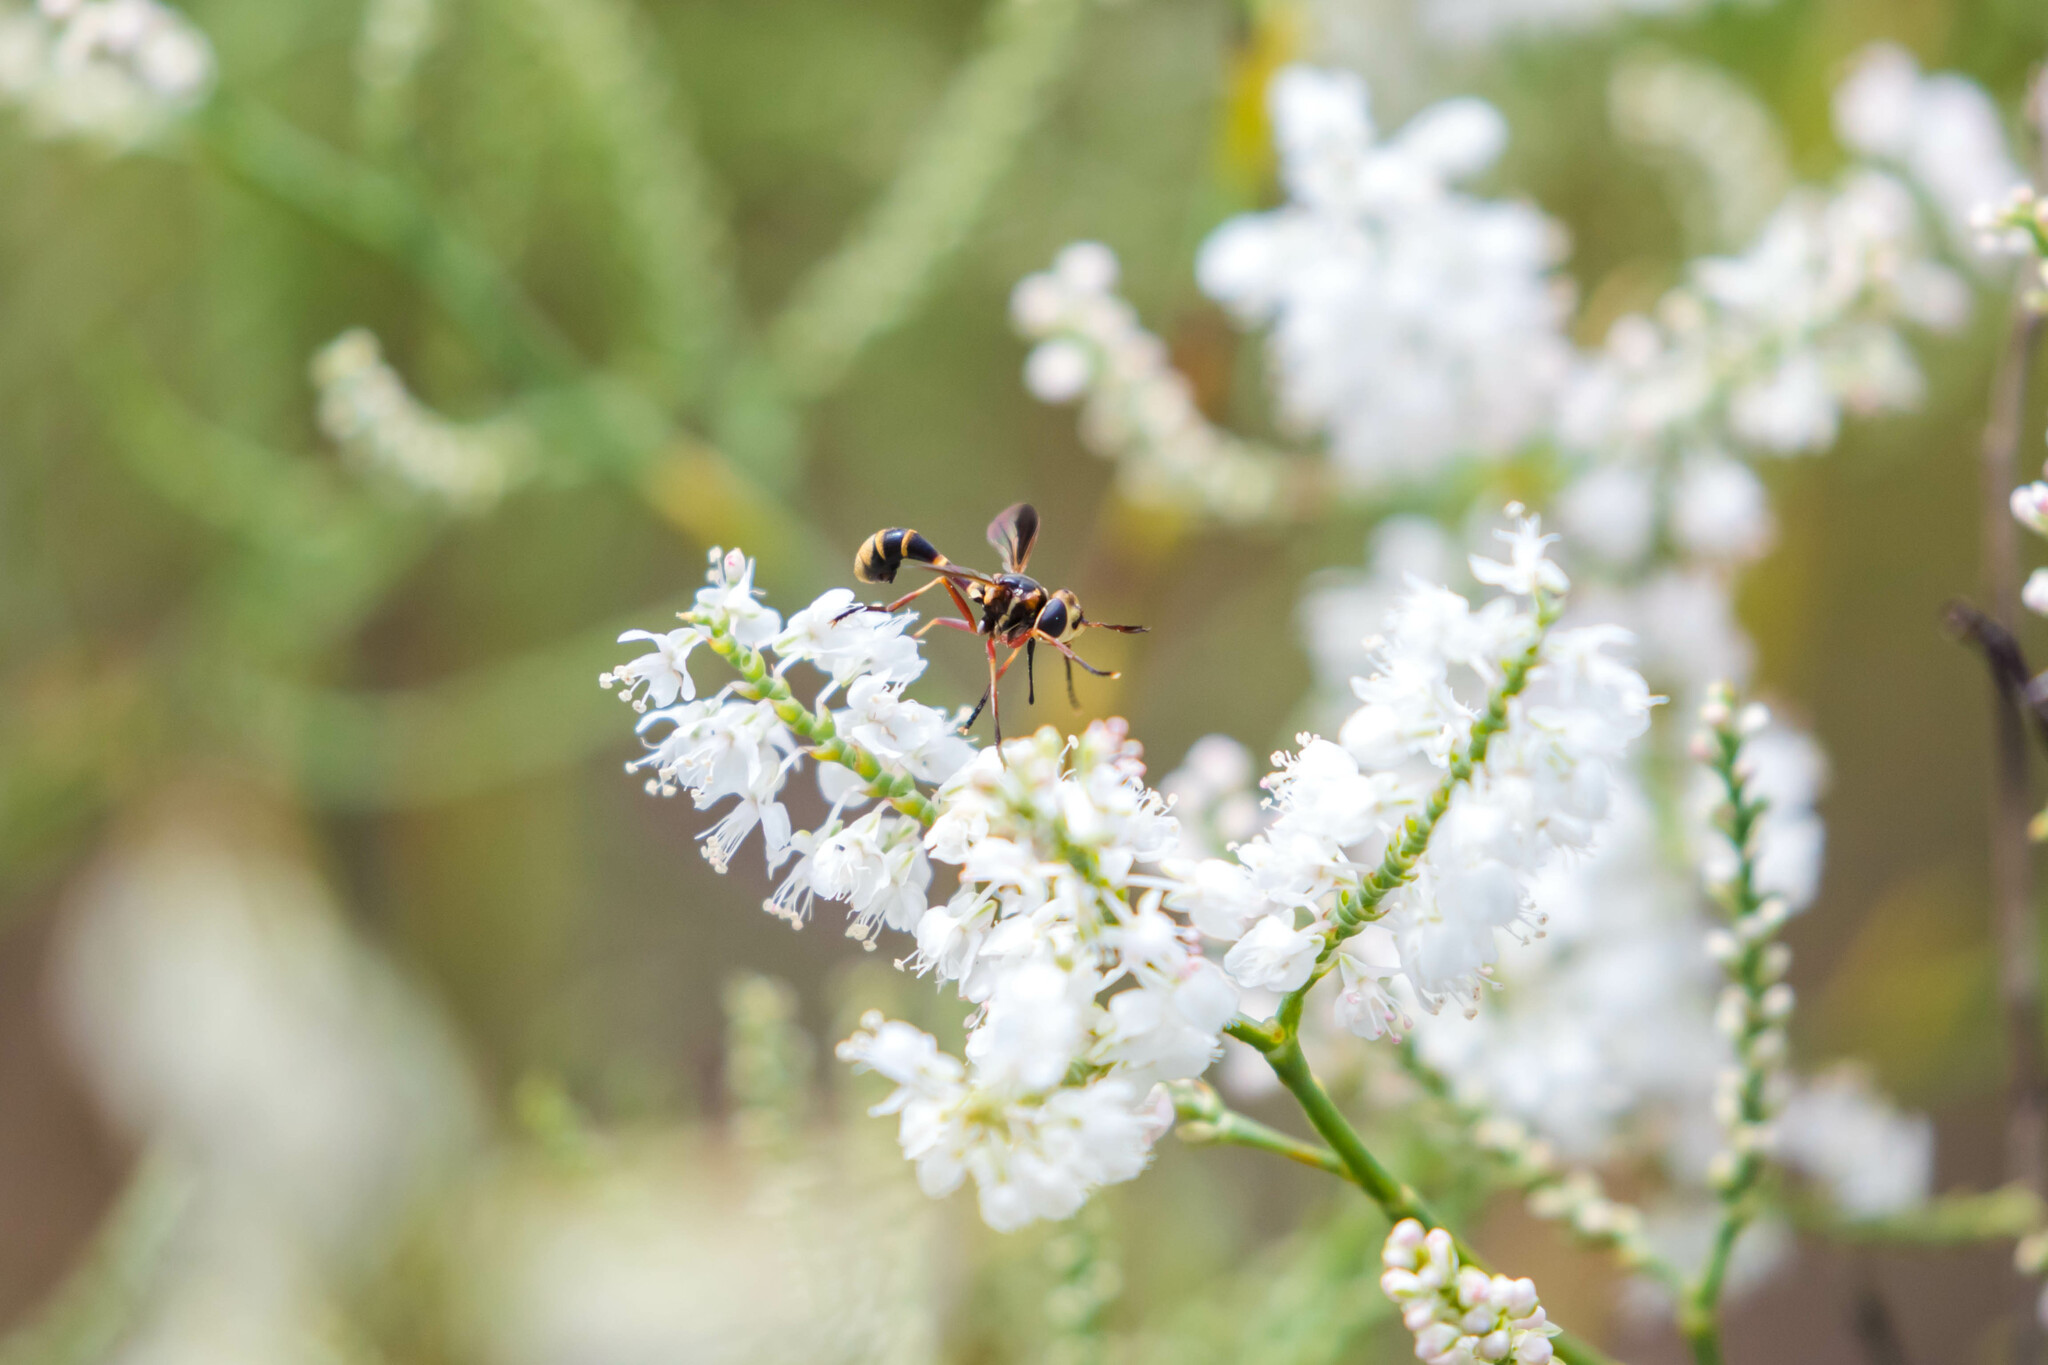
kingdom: Animalia
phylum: Arthropoda
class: Insecta
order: Diptera
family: Conopidae
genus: Physoconops
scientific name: Physoconops brachyrhynchus
